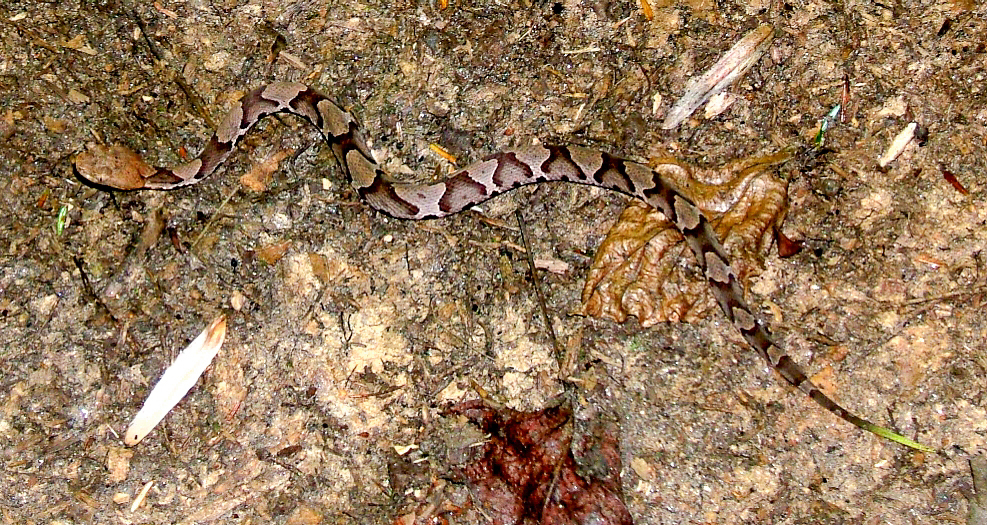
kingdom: Animalia
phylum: Chordata
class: Squamata
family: Viperidae
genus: Agkistrodon
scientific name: Agkistrodon contortrix
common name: Northern copperhead
